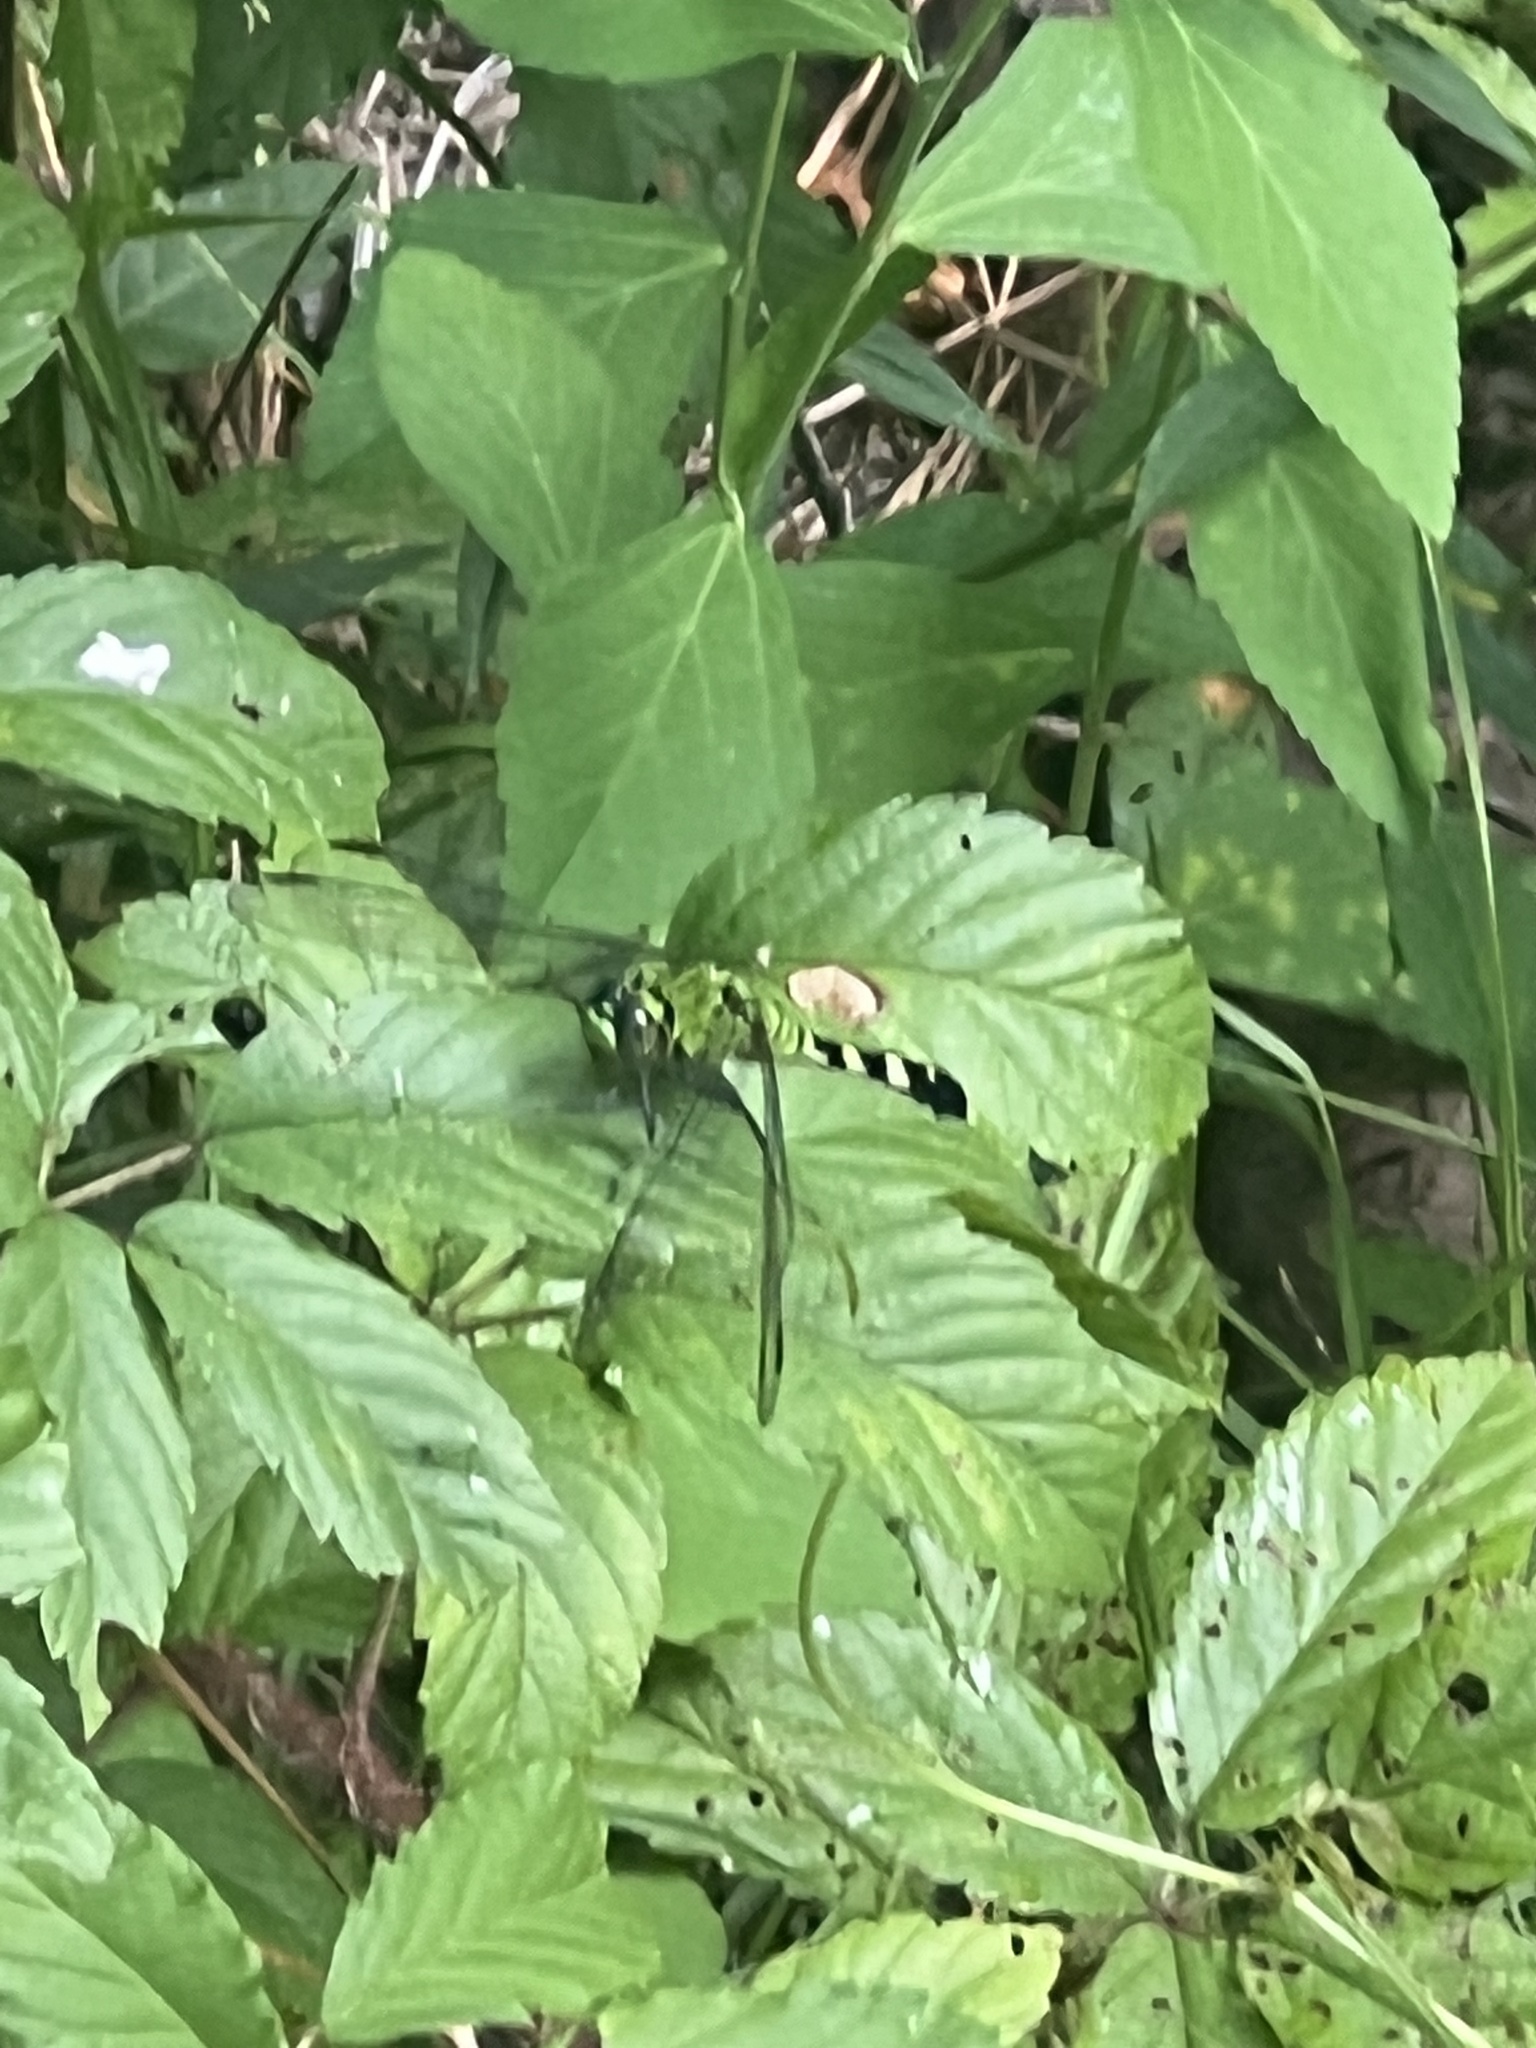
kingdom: Animalia
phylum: Arthropoda
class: Insecta
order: Odonata
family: Libellulidae
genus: Erythemis
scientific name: Erythemis simplicicollis
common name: Eastern pondhawk
